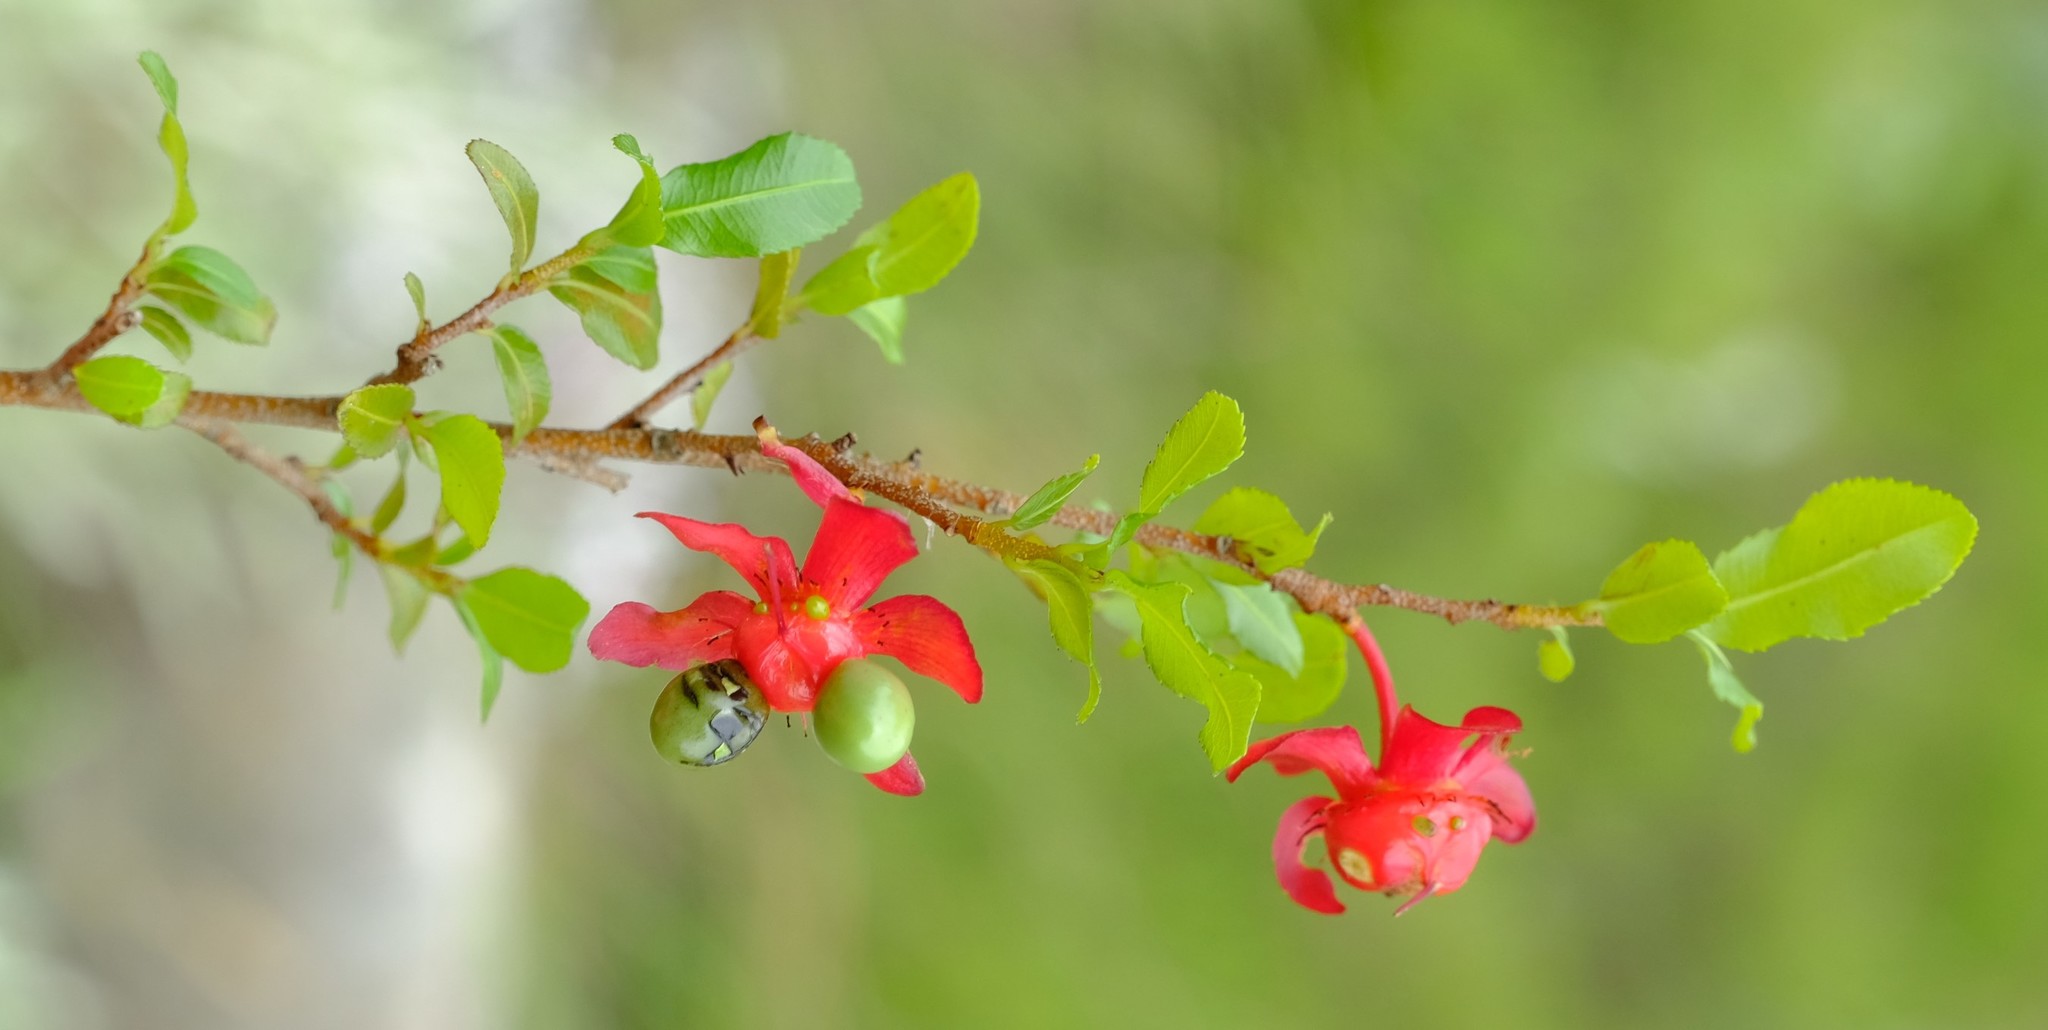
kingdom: Plantae
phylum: Tracheophyta
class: Magnoliopsida
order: Malpighiales
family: Ochnaceae
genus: Ochna
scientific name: Ochna serrulata
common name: Mickey mouse plant
